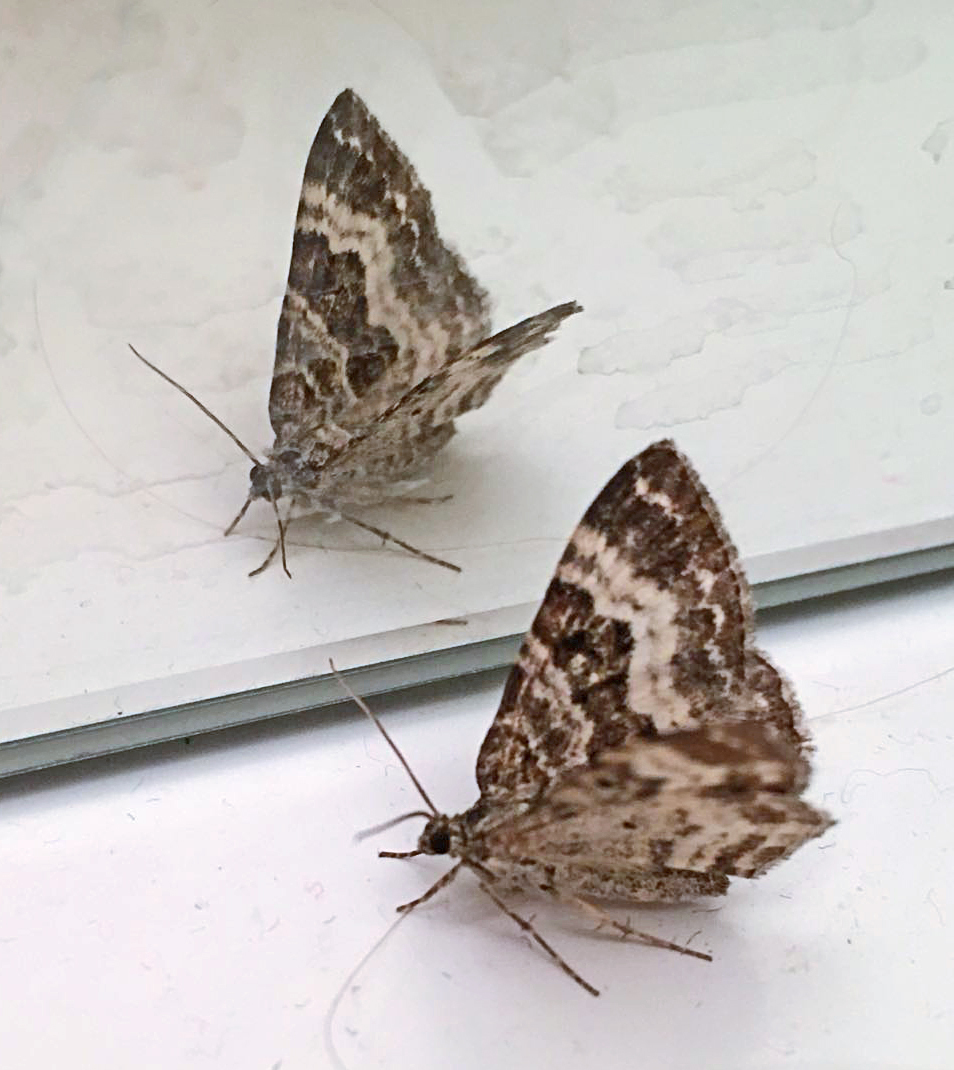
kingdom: Animalia
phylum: Arthropoda
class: Insecta
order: Lepidoptera
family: Geometridae
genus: Epirrhoe
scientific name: Epirrhoe alternata
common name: Common carpet
